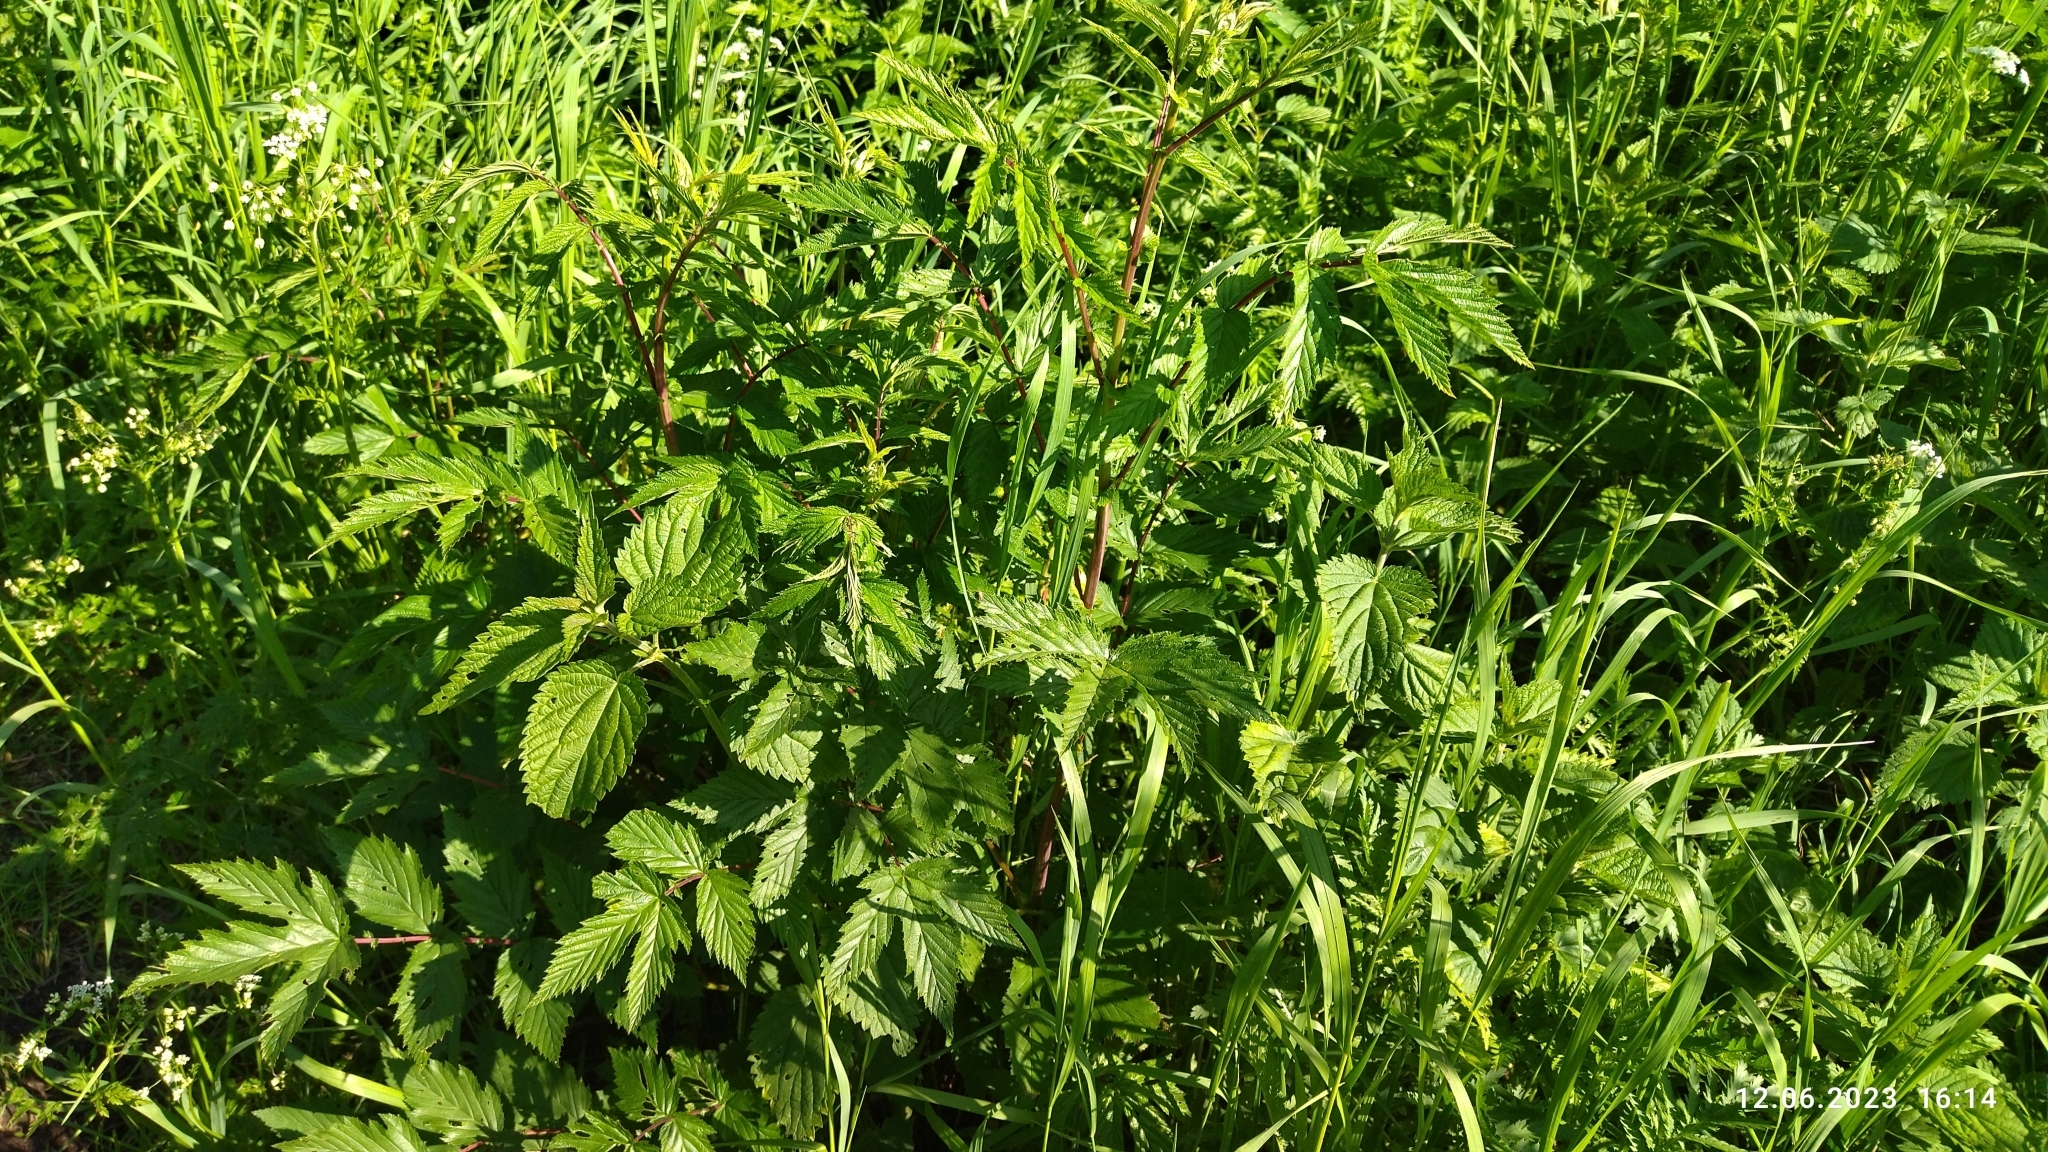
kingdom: Plantae
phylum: Tracheophyta
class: Magnoliopsida
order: Rosales
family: Rosaceae
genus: Filipendula
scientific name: Filipendula ulmaria
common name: Meadowsweet
